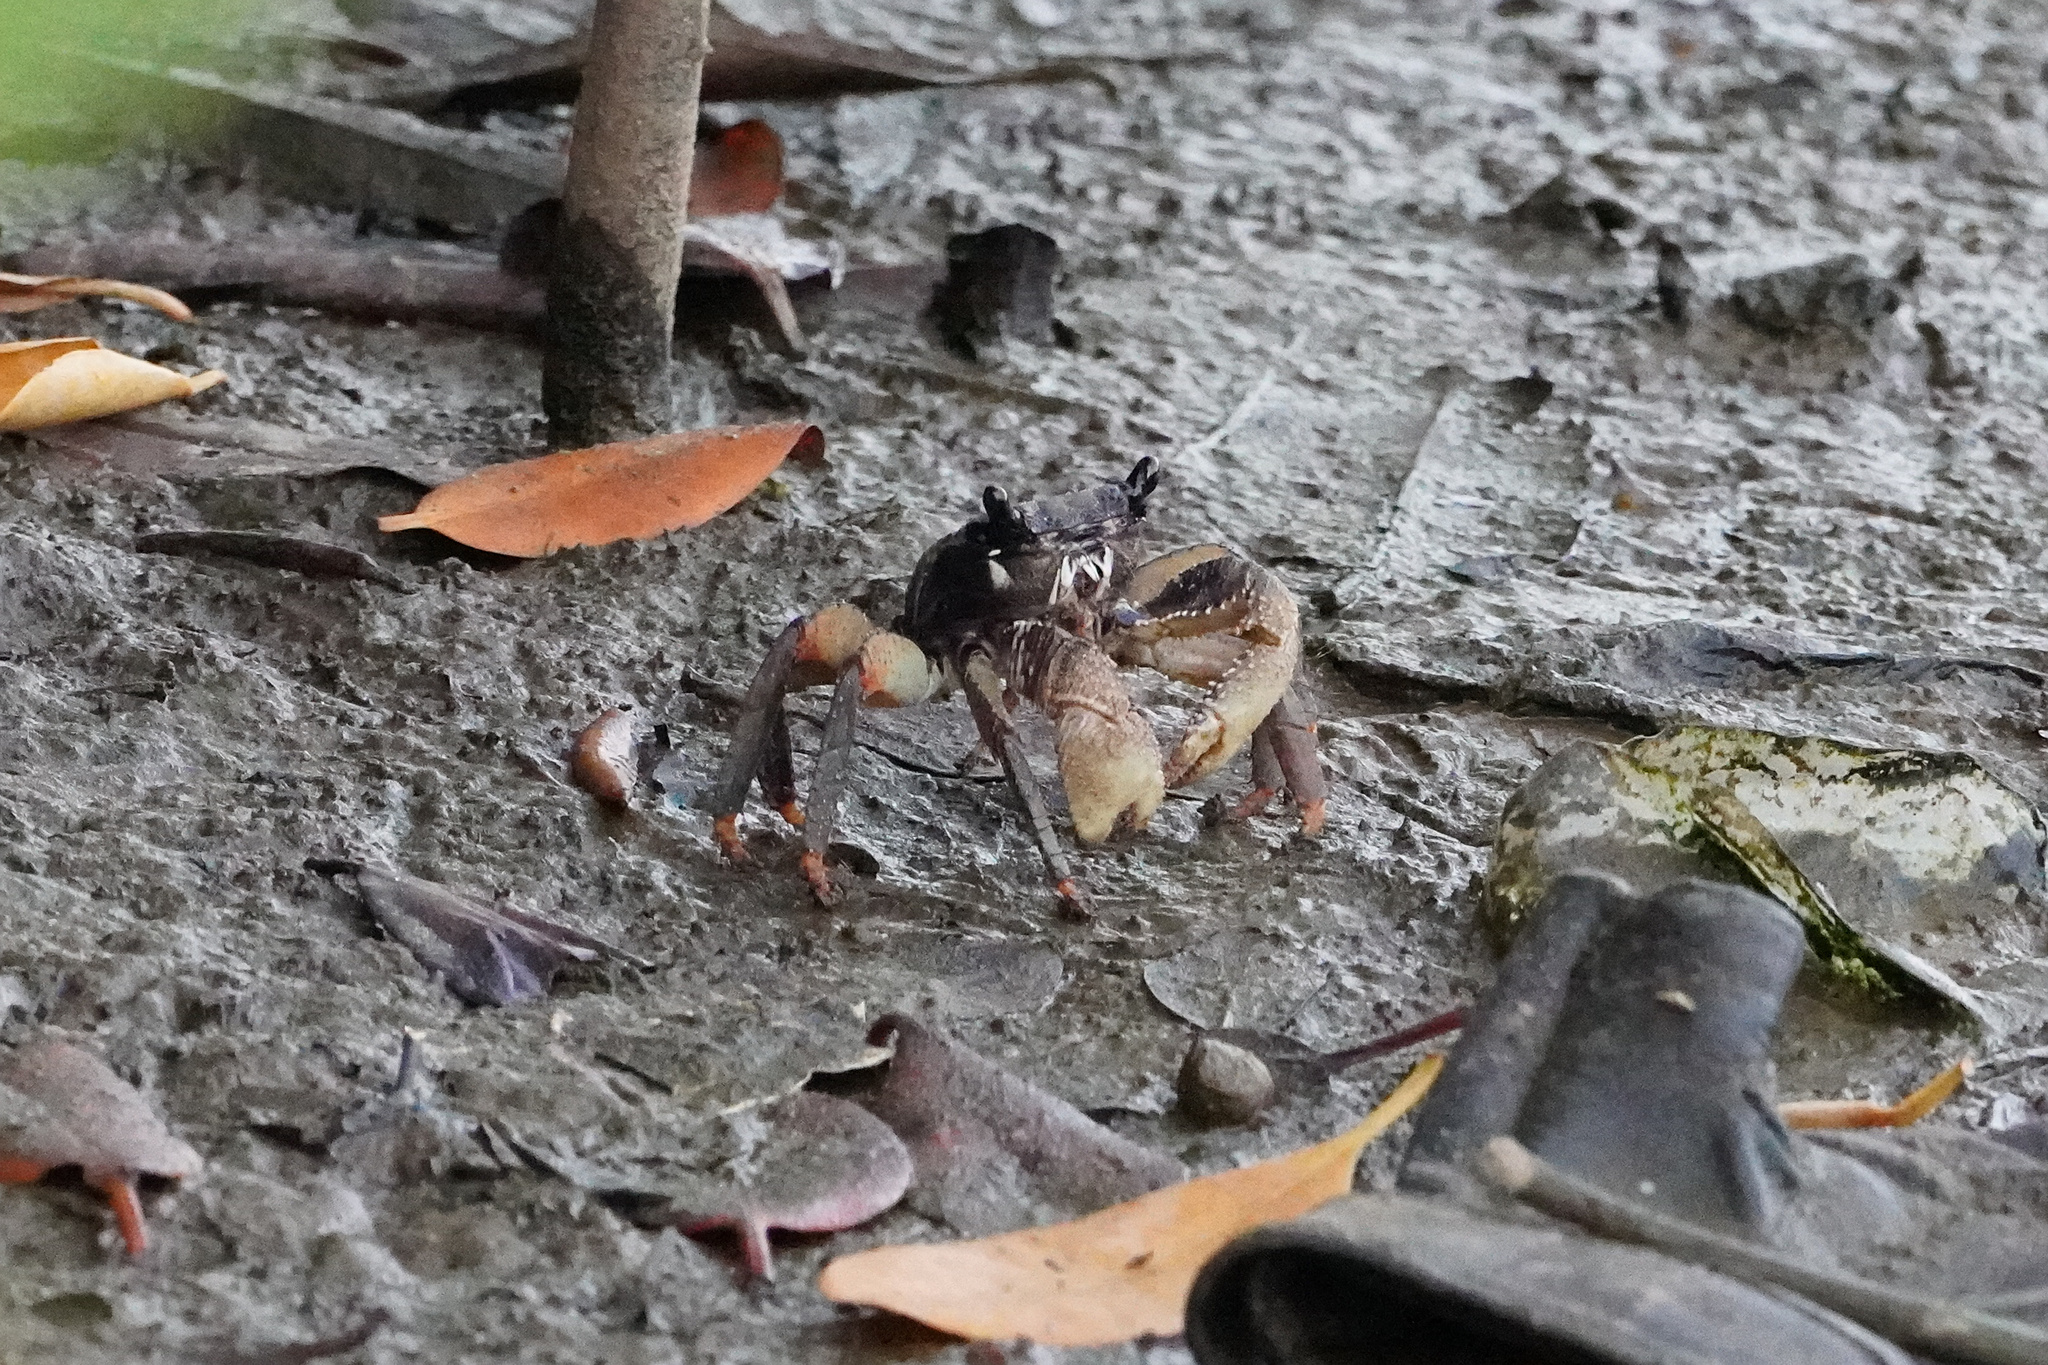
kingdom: Animalia
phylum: Arthropoda
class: Malacostraca
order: Decapoda
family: Grapsidae
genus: Goniopsis
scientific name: Goniopsis pelii
